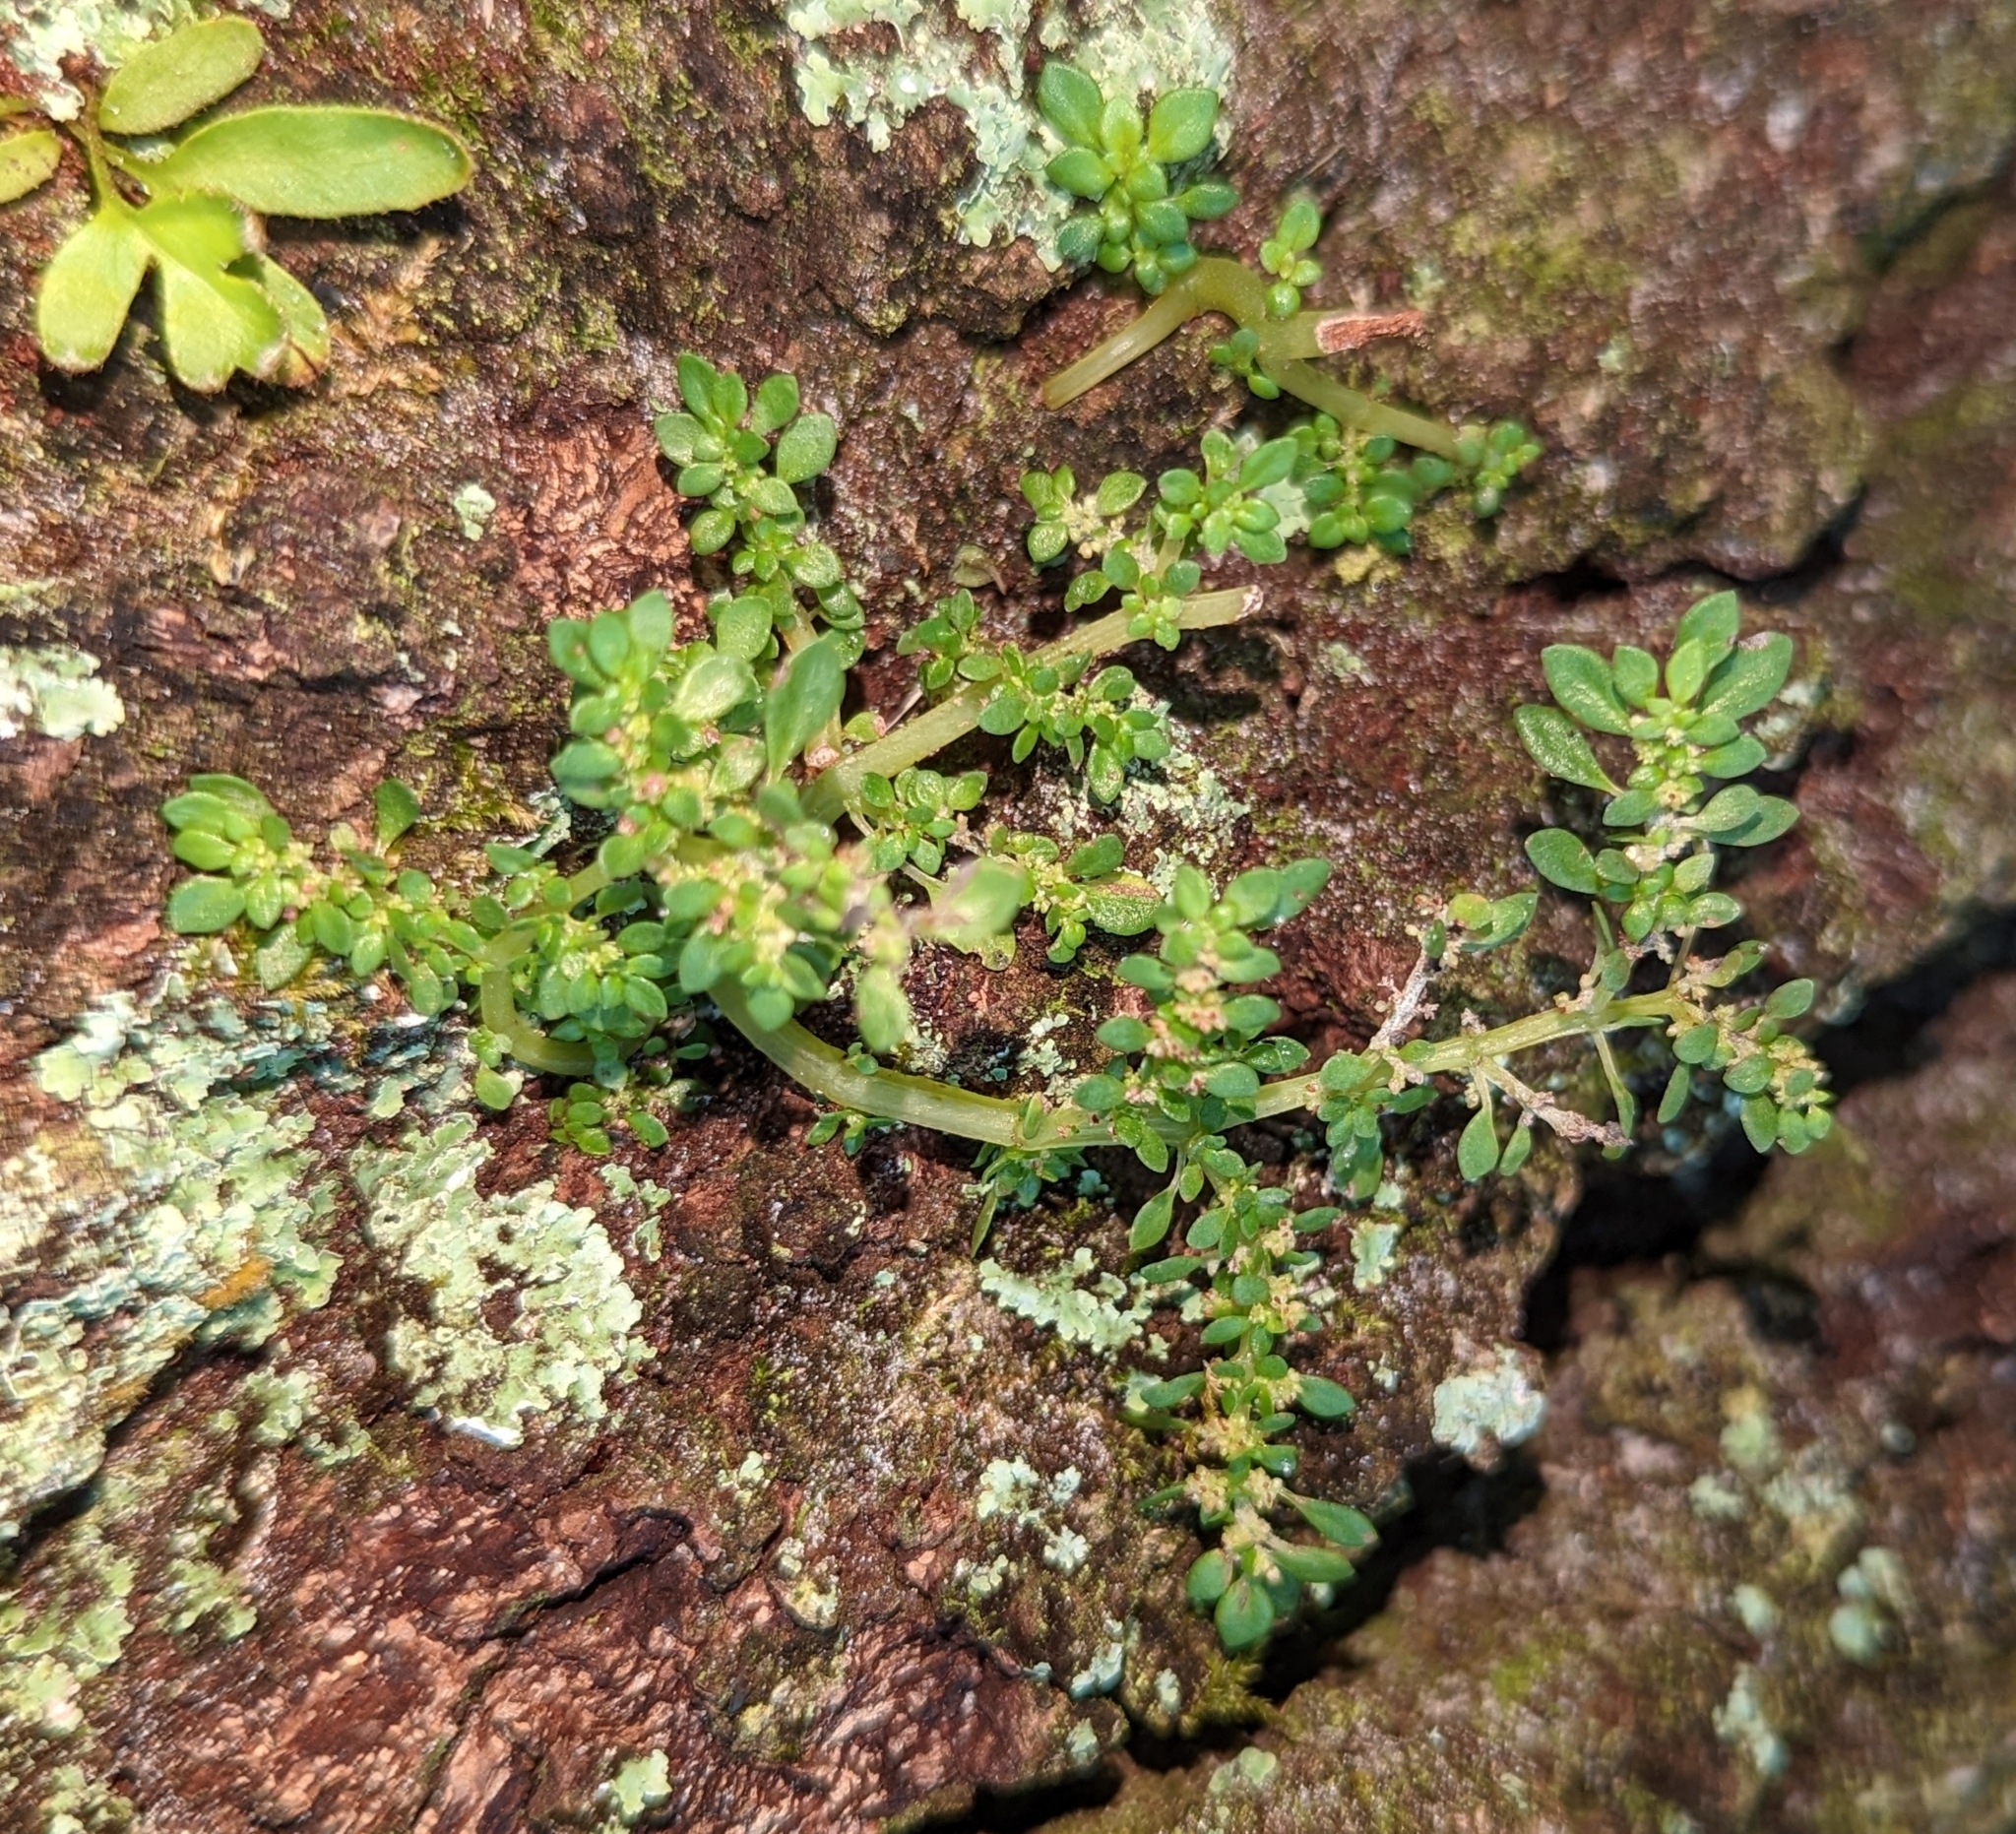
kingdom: Plantae
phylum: Tracheophyta
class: Magnoliopsida
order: Rosales
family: Urticaceae
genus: Pilea
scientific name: Pilea microphylla
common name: Artillery-plant
